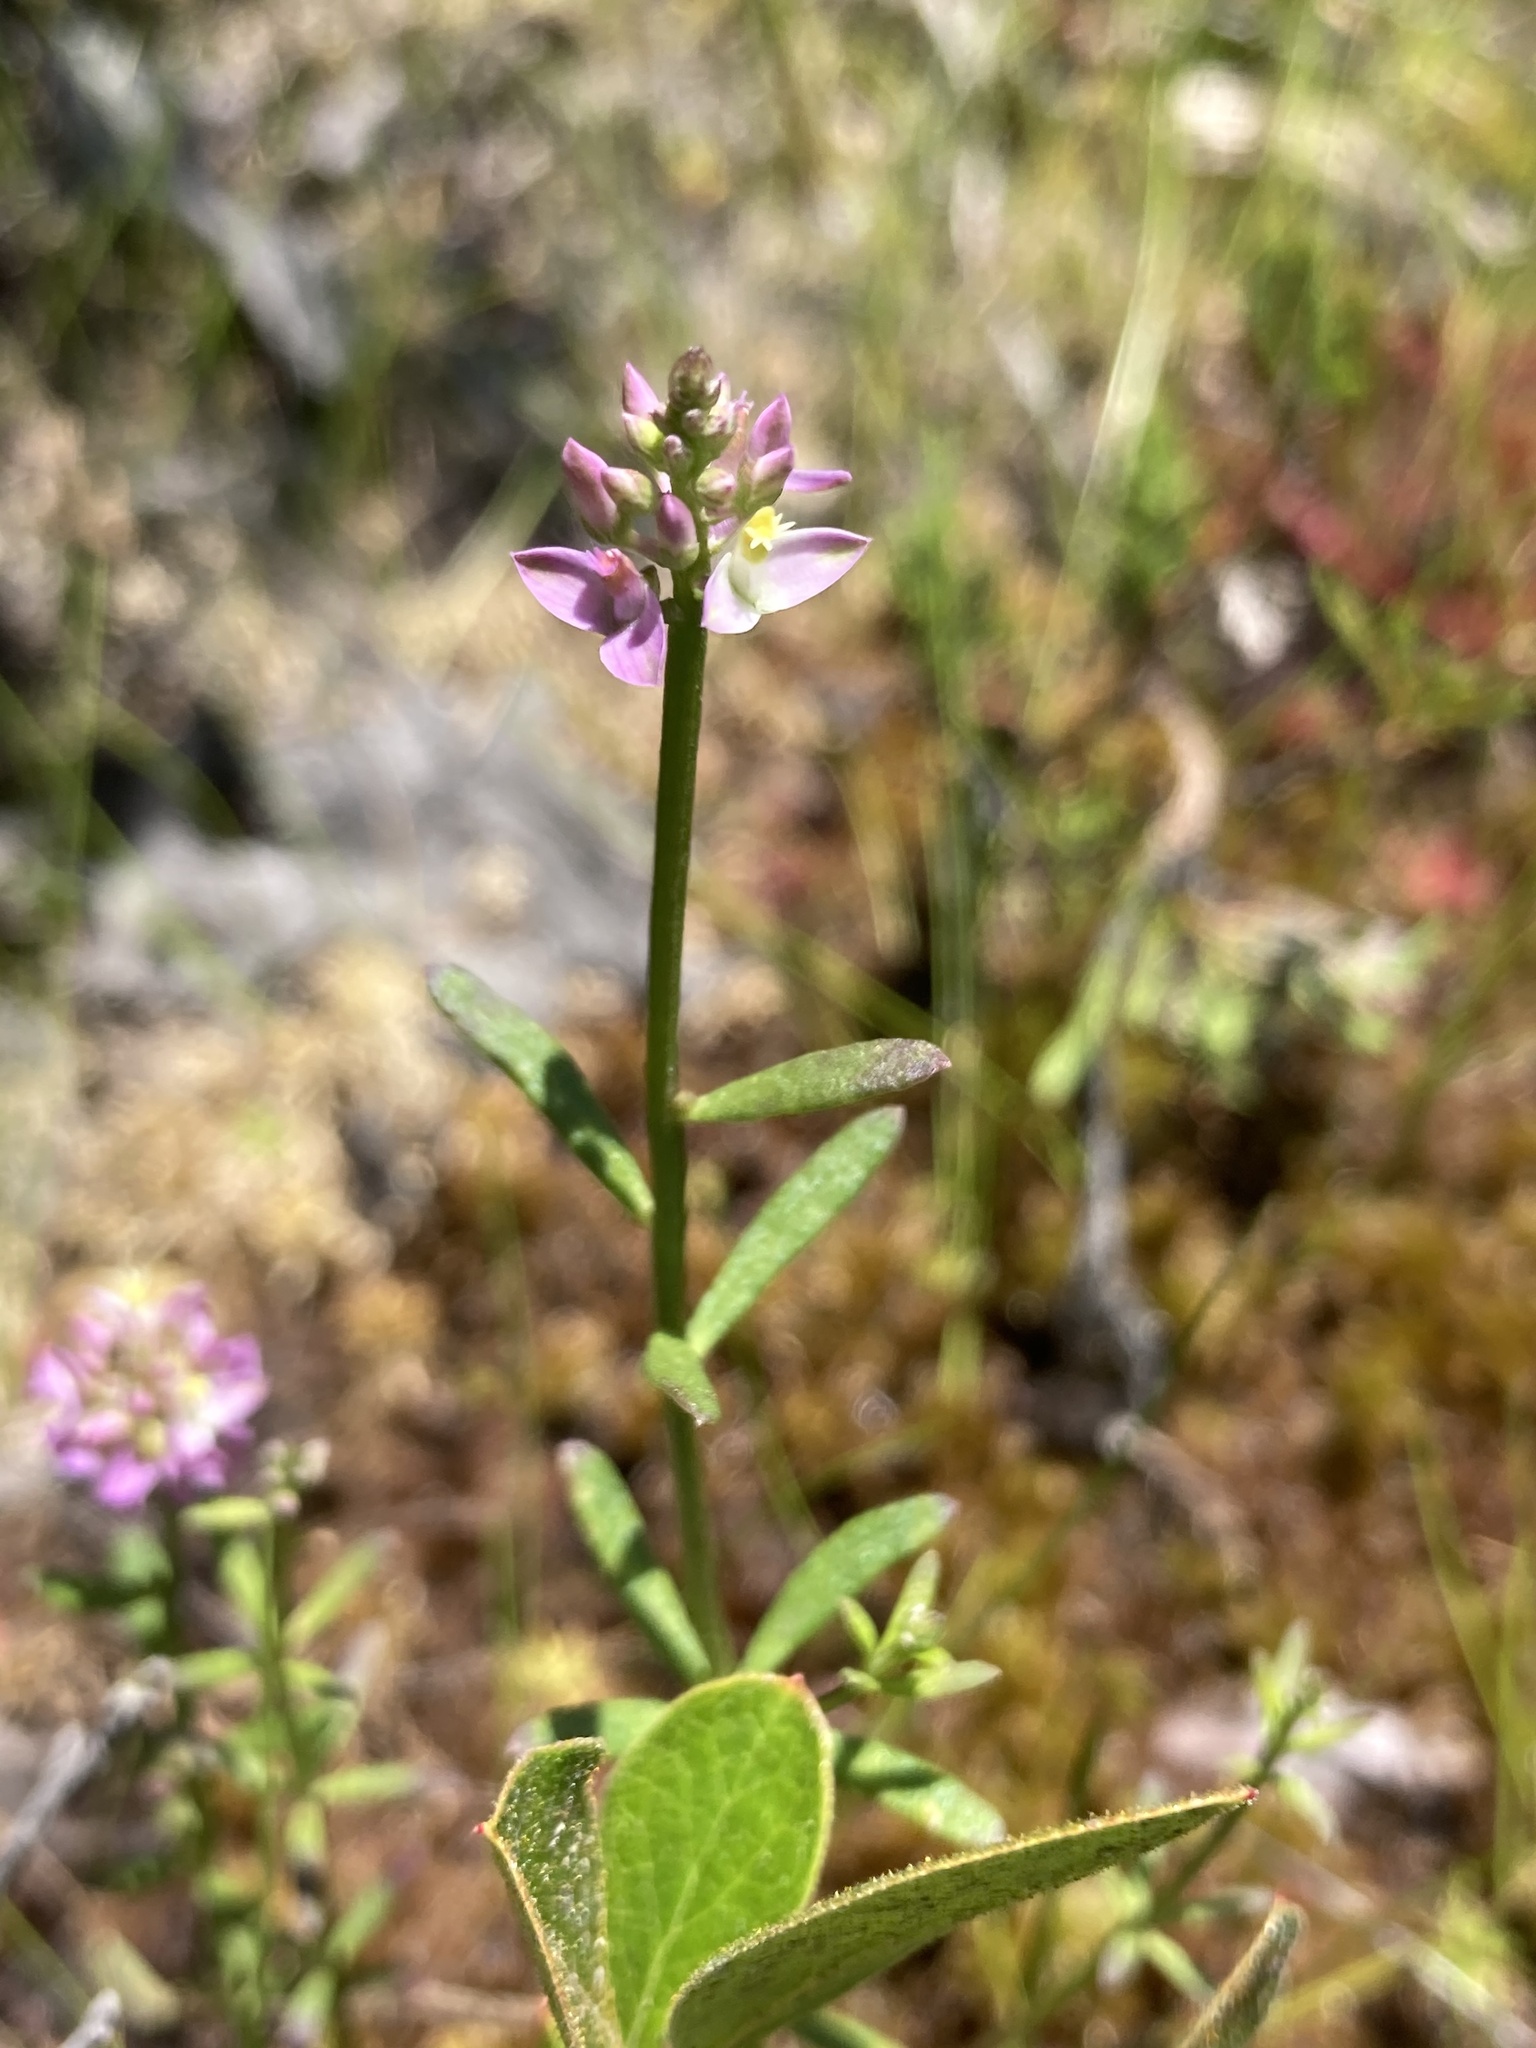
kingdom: Plantae
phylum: Tracheophyta
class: Magnoliopsida
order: Fabales
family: Polygalaceae
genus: Polygala
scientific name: Polygala brevifolia
